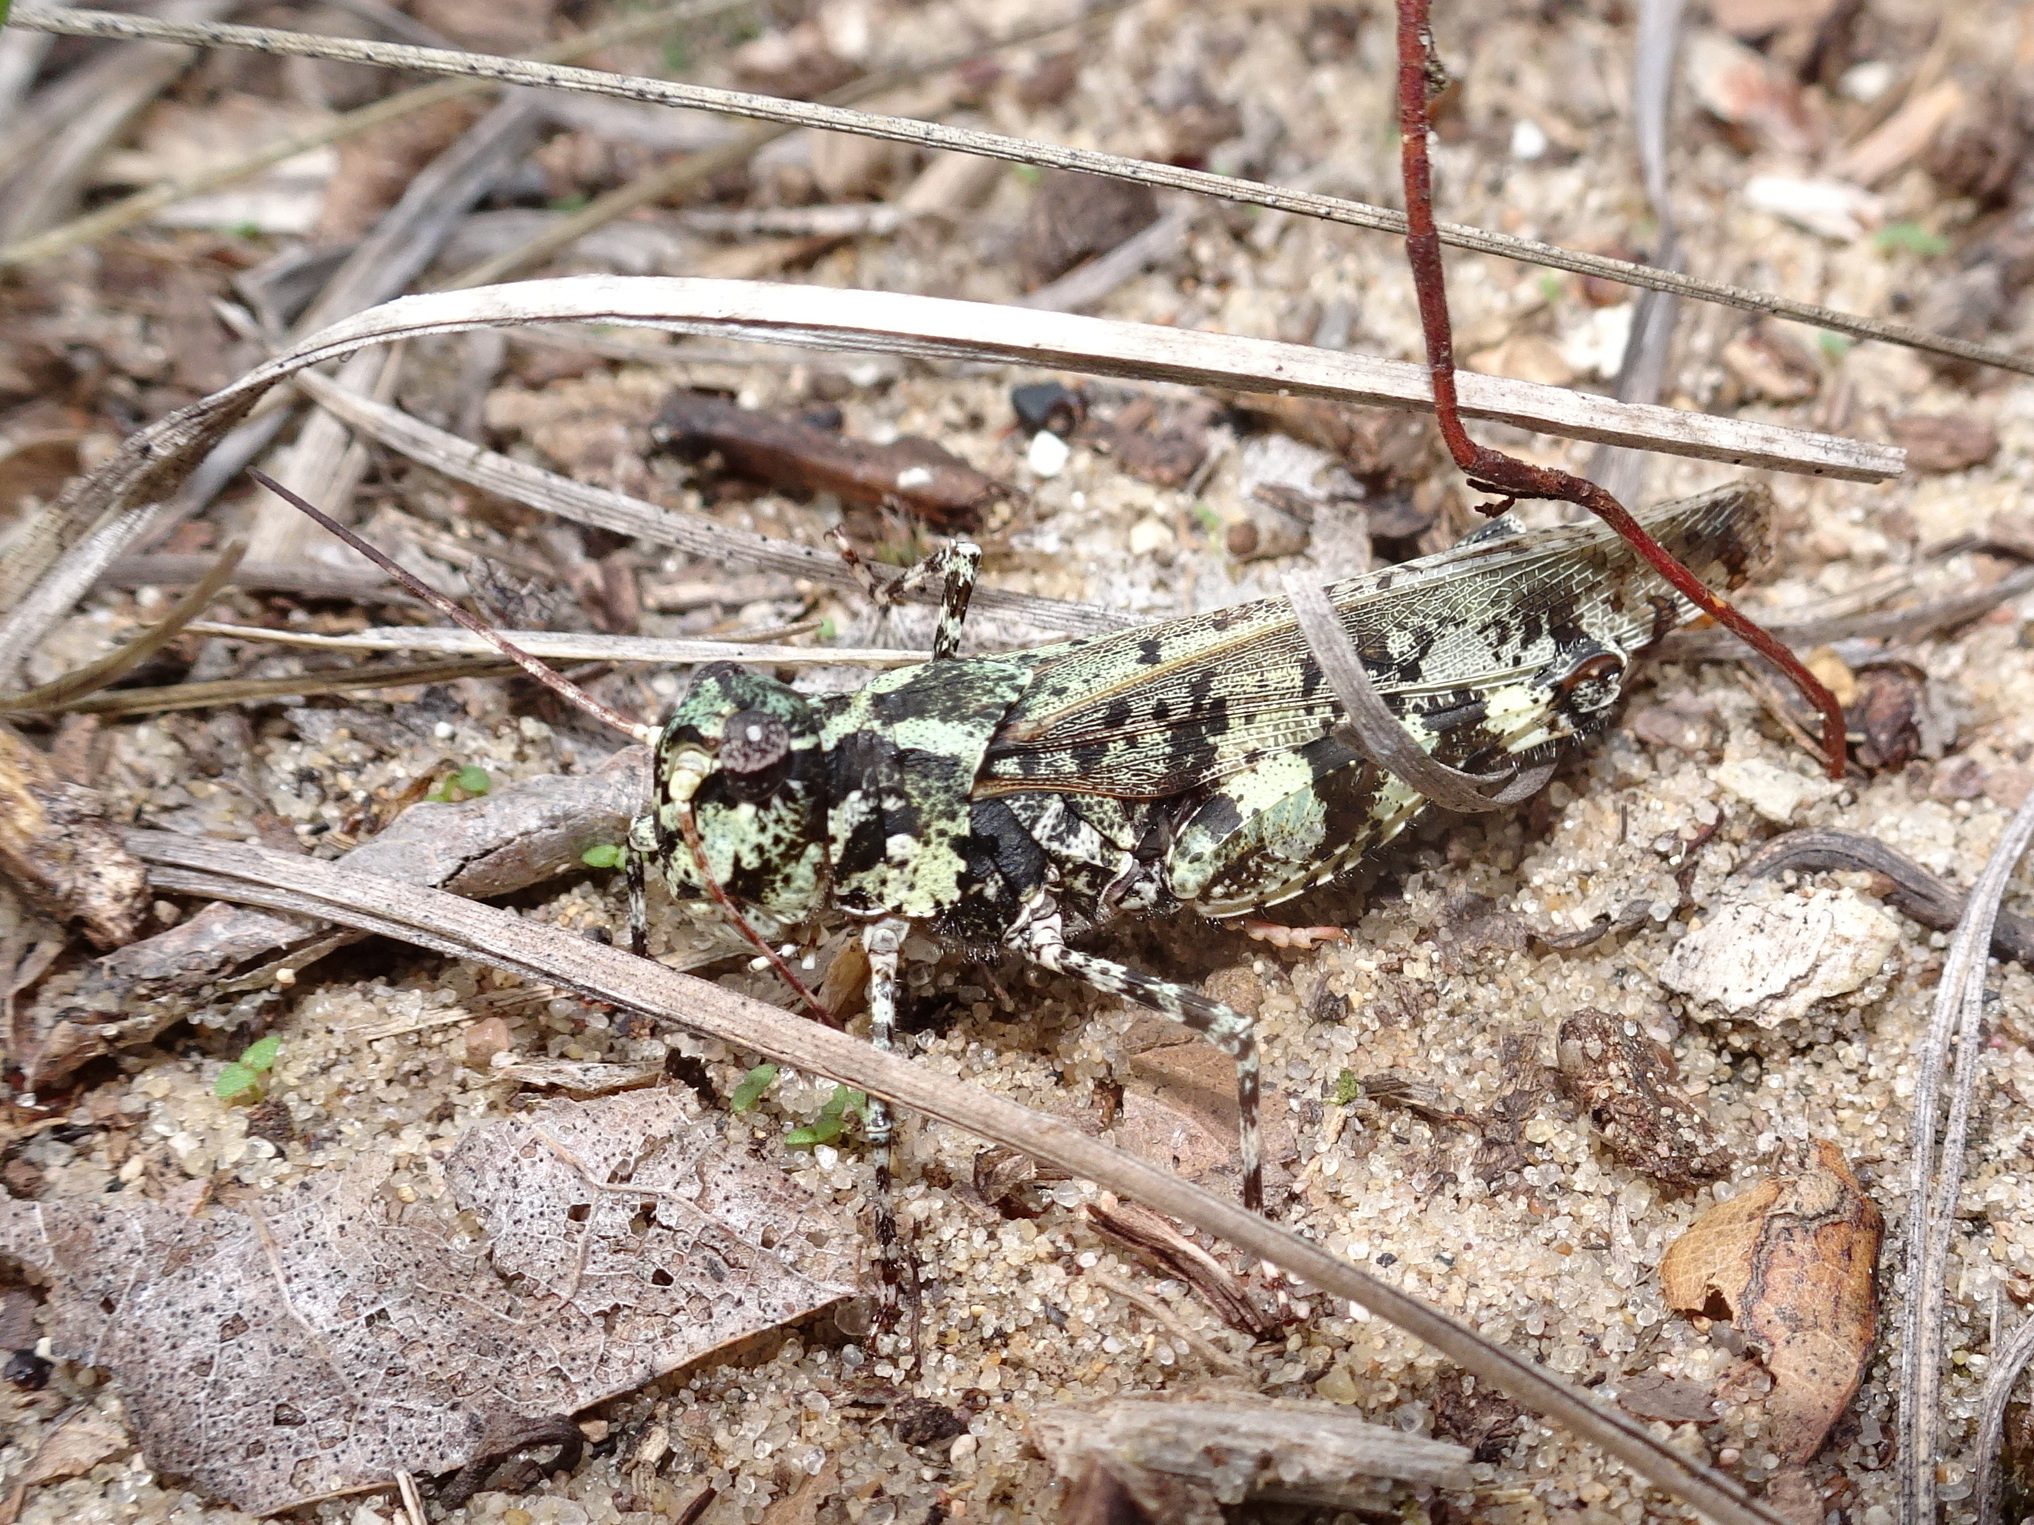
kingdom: Animalia
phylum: Arthropoda
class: Insecta
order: Orthoptera
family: Acrididae
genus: Spharagemon
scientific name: Spharagemon marmoratum
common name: Marbled grasshopper
